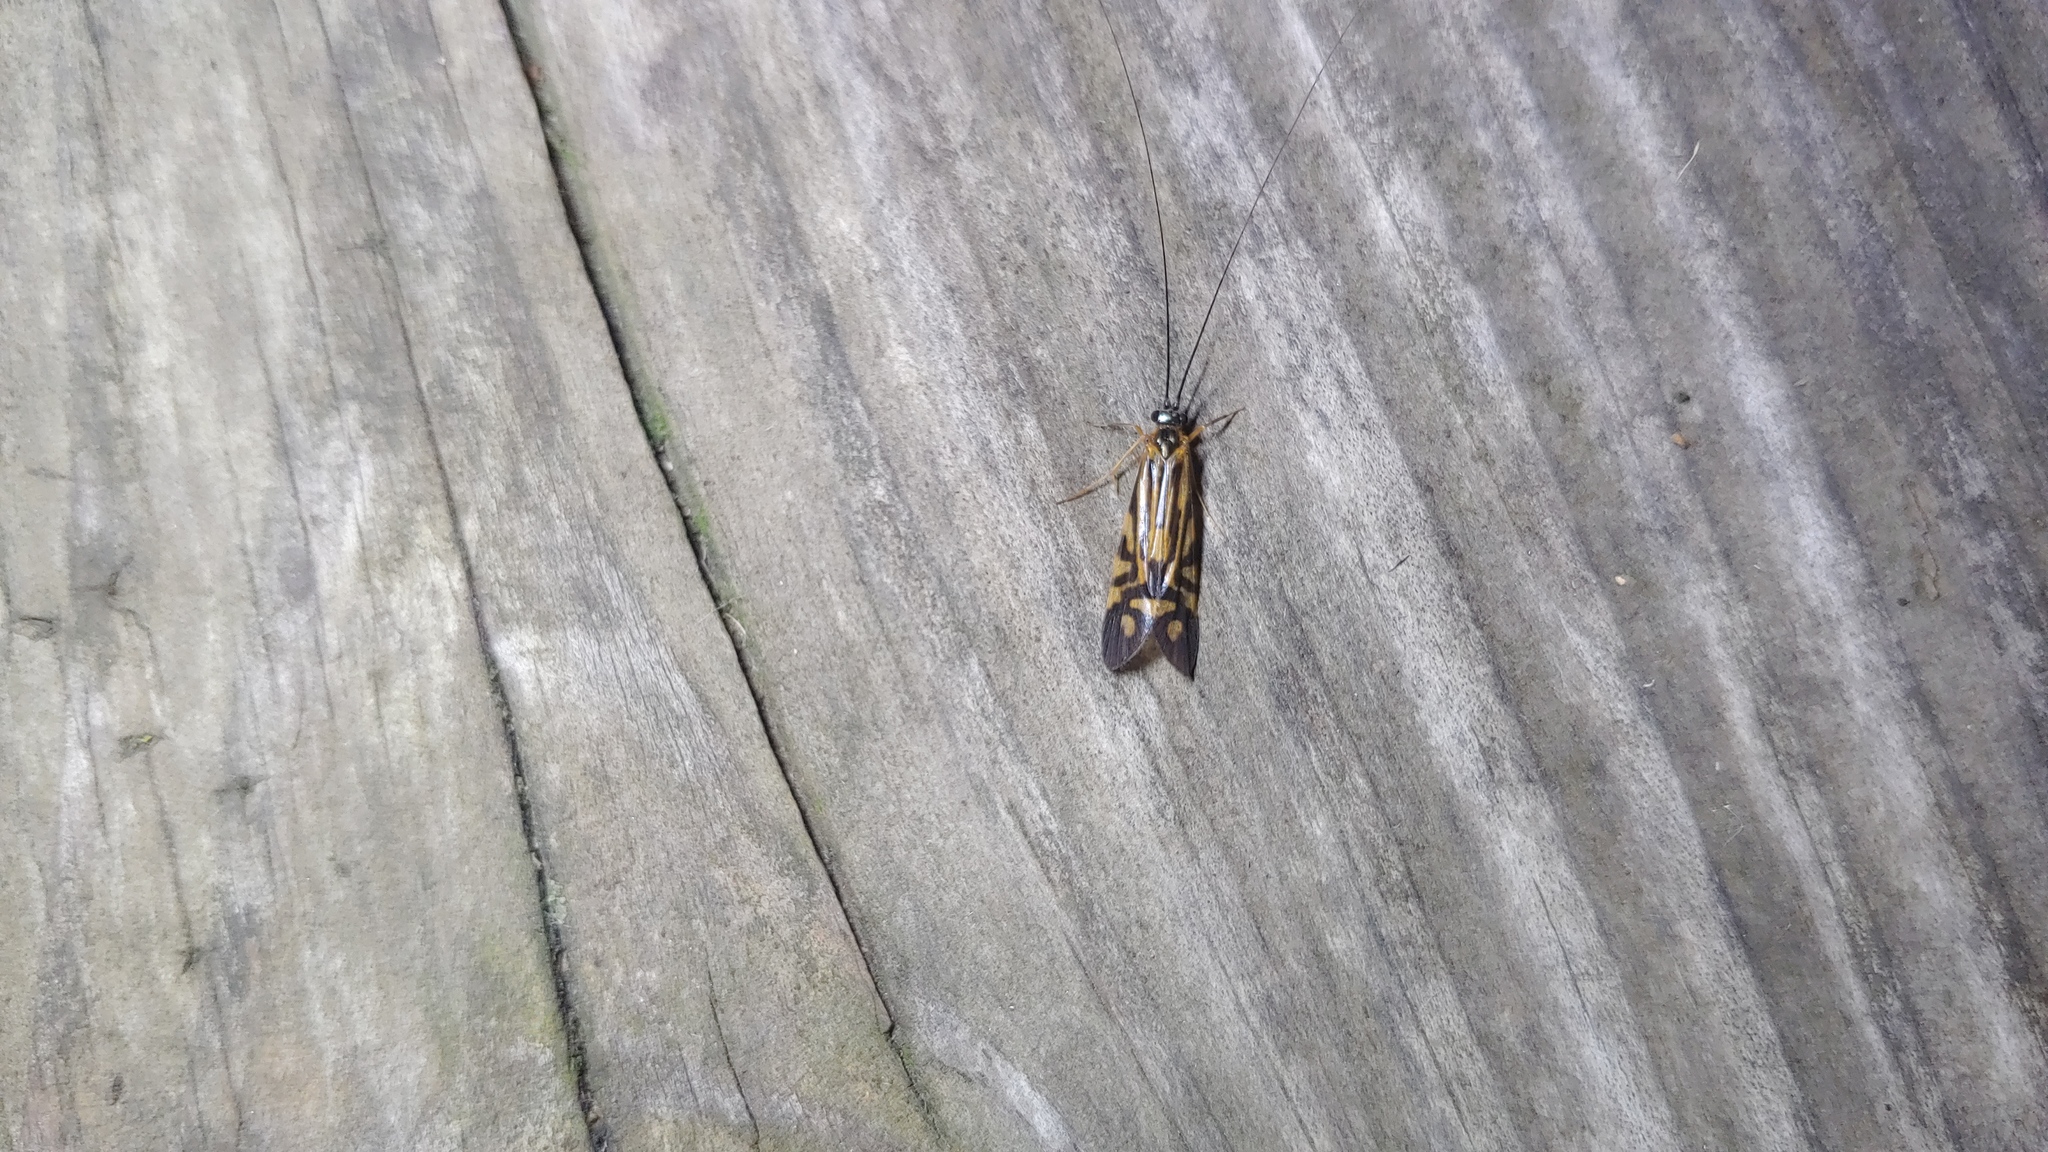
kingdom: Animalia
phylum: Arthropoda
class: Insecta
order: Trichoptera
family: Hydropsychidae
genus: Macrostemum
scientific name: Macrostemum zebratum
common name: Zebra caddisfly
